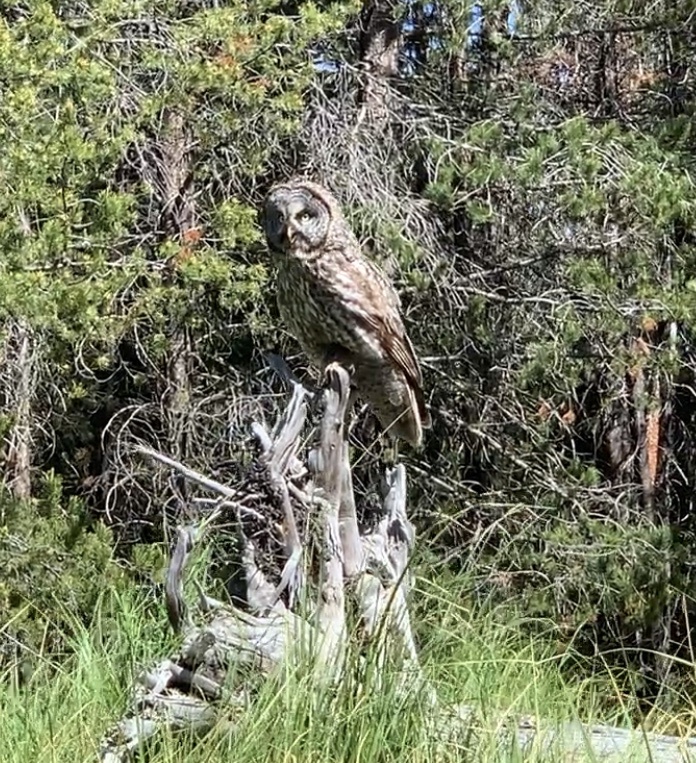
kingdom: Animalia
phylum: Chordata
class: Aves
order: Strigiformes
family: Strigidae
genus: Strix
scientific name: Strix nebulosa
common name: Great grey owl
